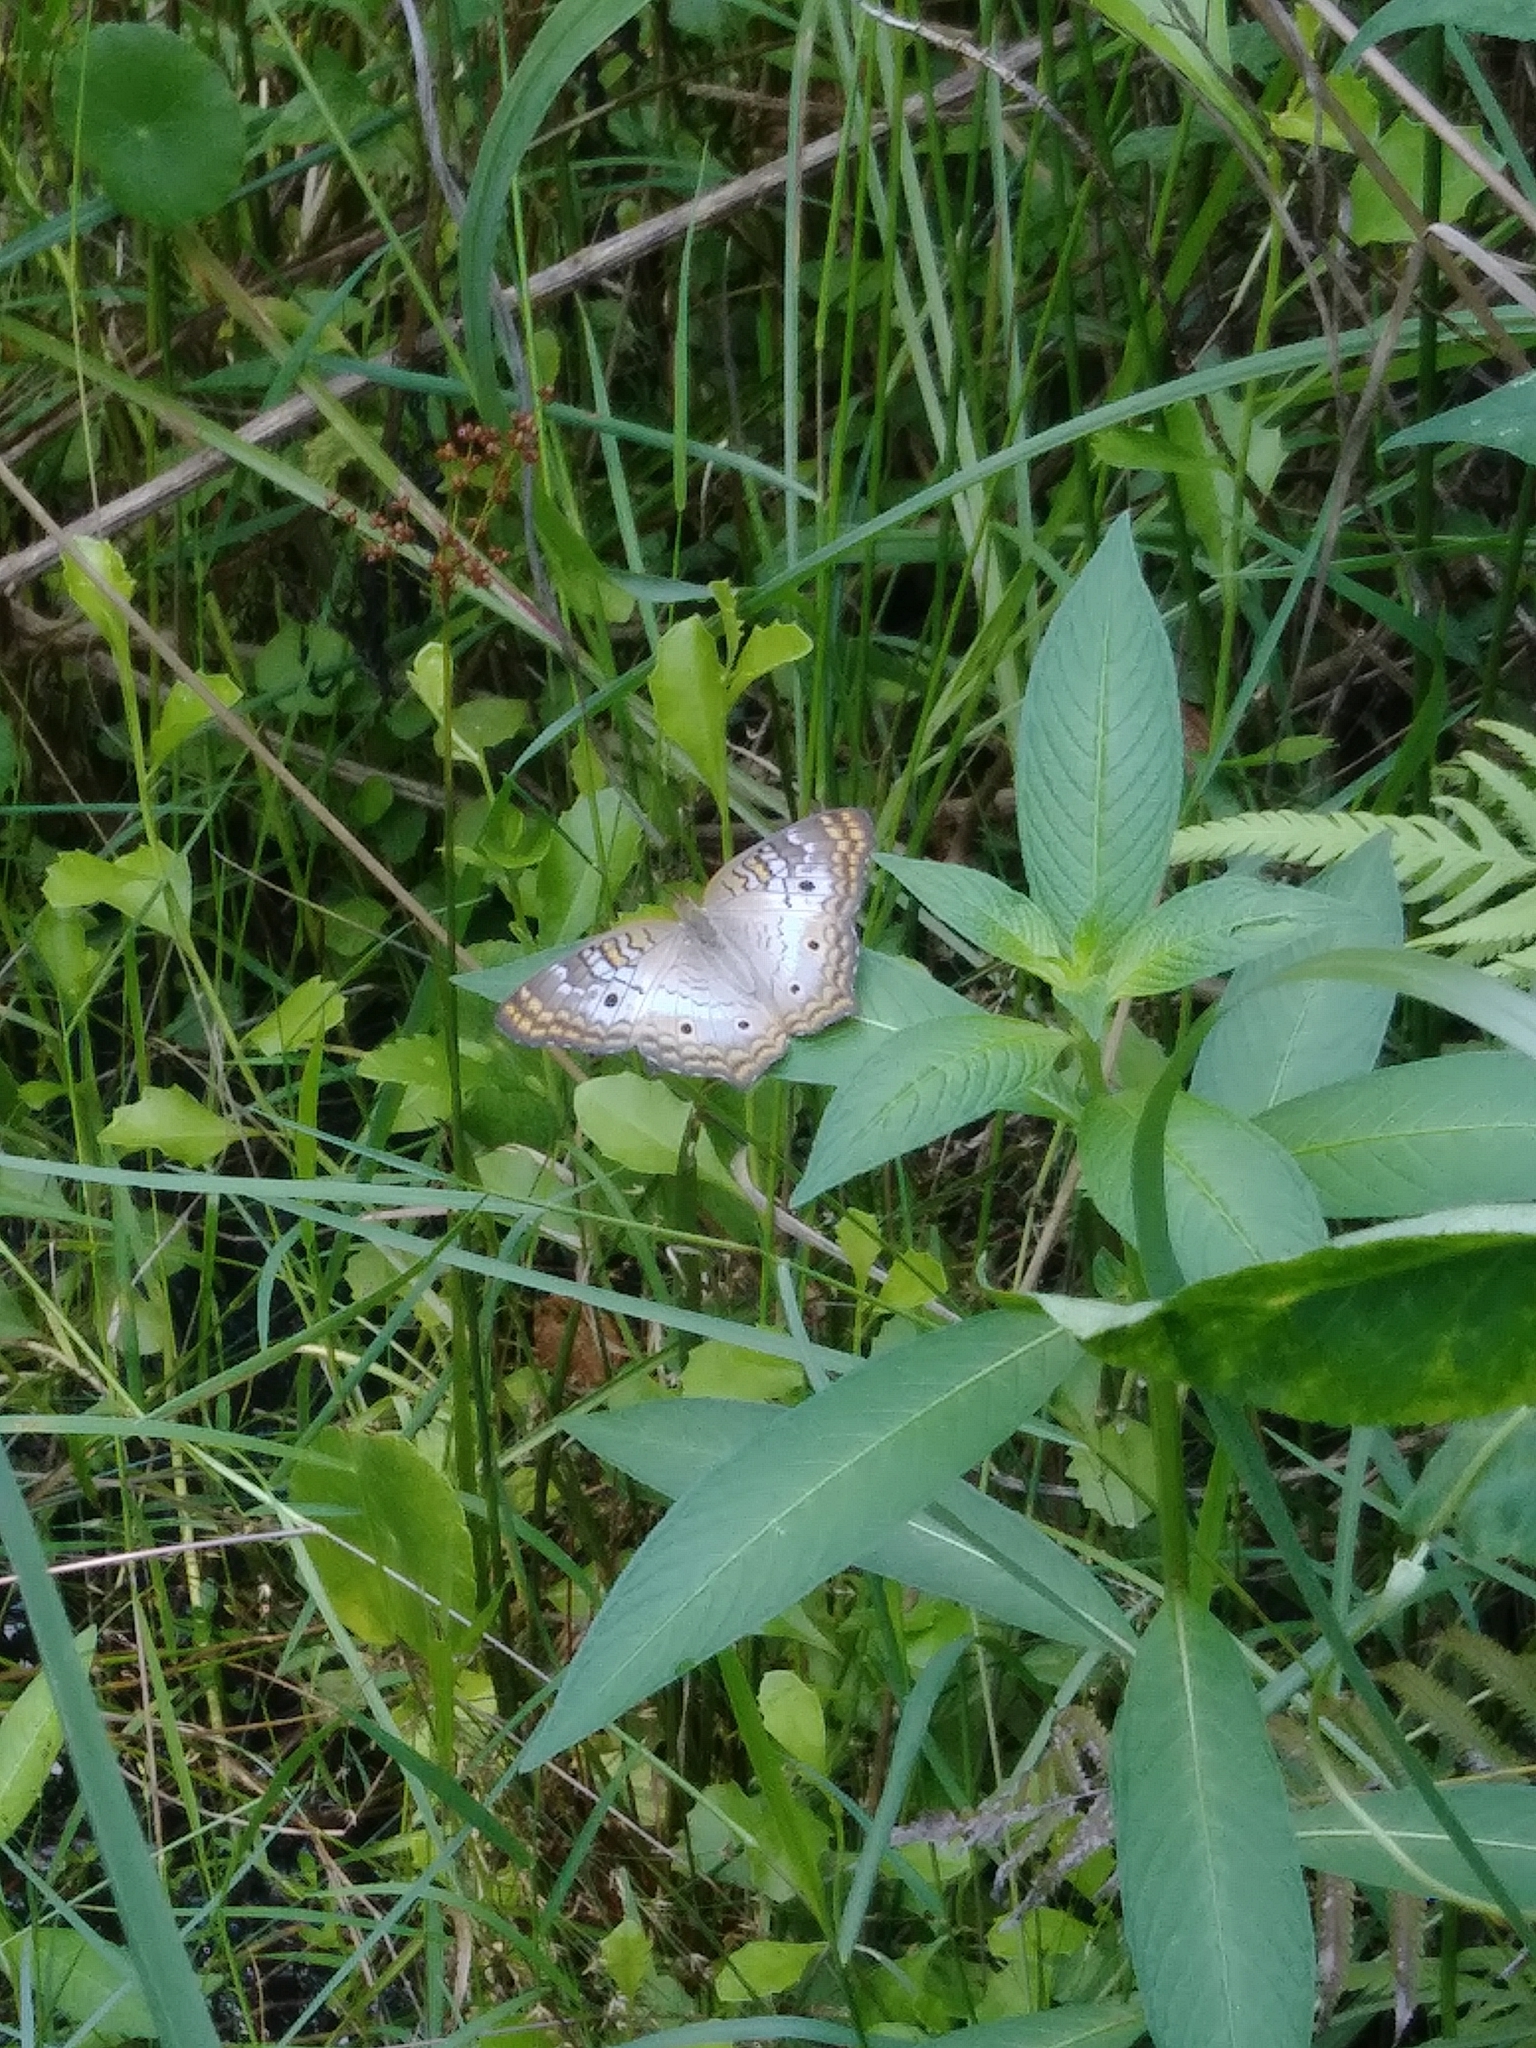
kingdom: Animalia
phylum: Arthropoda
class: Insecta
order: Lepidoptera
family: Nymphalidae
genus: Anartia
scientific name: Anartia jatrophae
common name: White peacock
